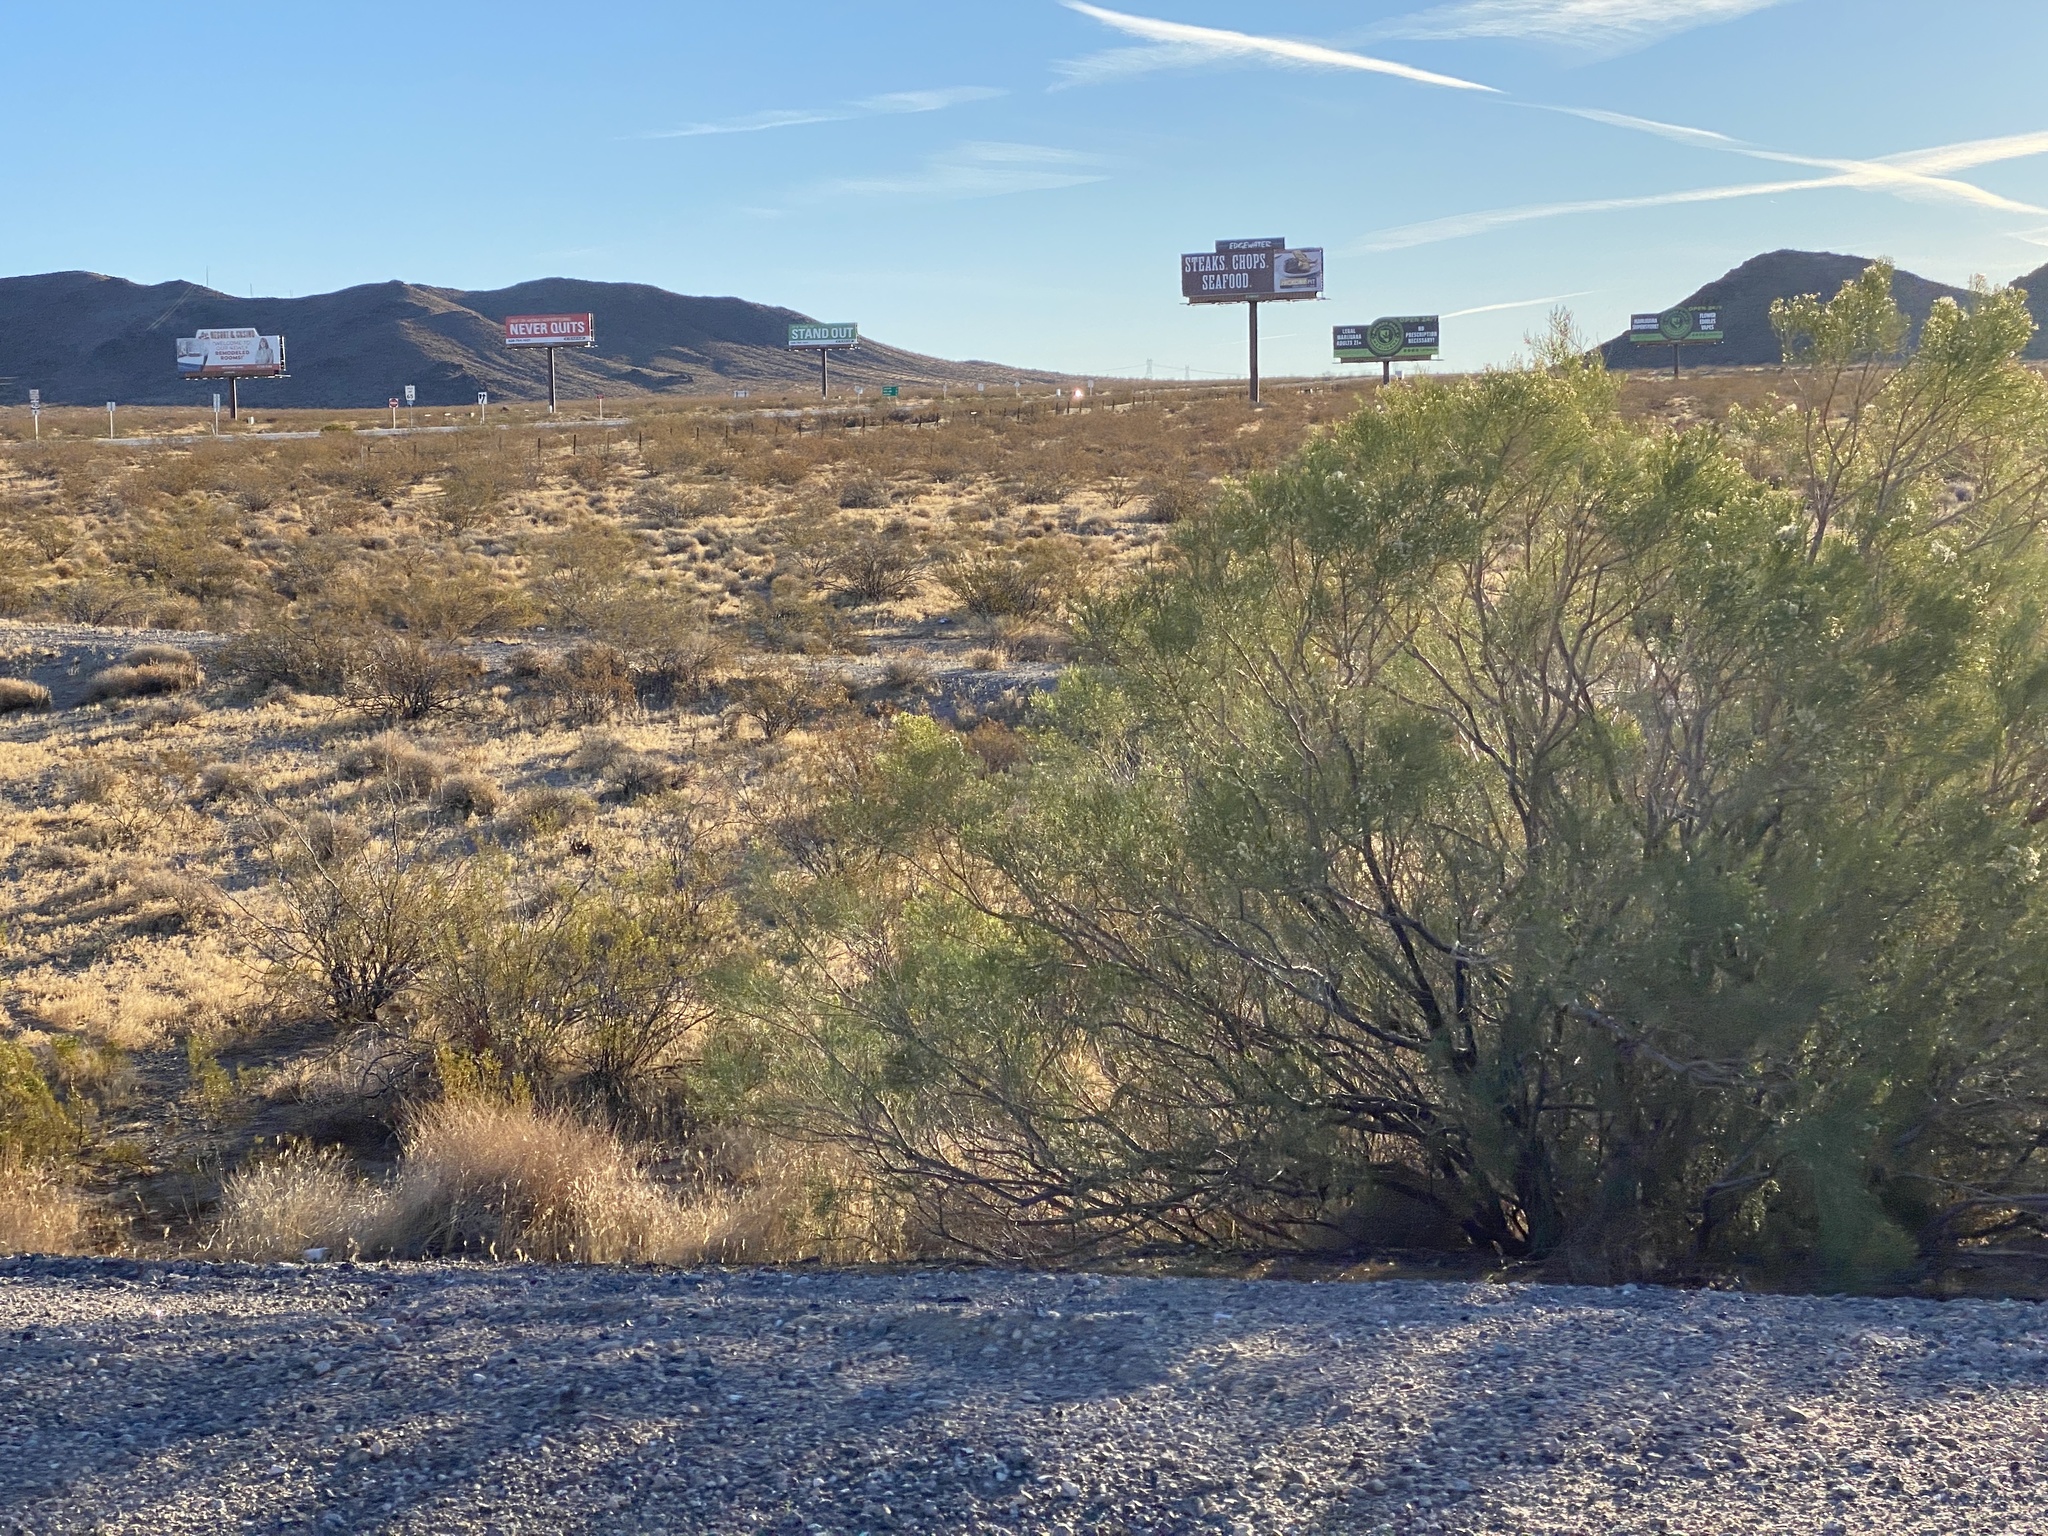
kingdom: Plantae
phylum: Tracheophyta
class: Magnoliopsida
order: Asterales
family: Asteraceae
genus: Baccharis
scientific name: Baccharis sarothroides
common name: Desert-broom
